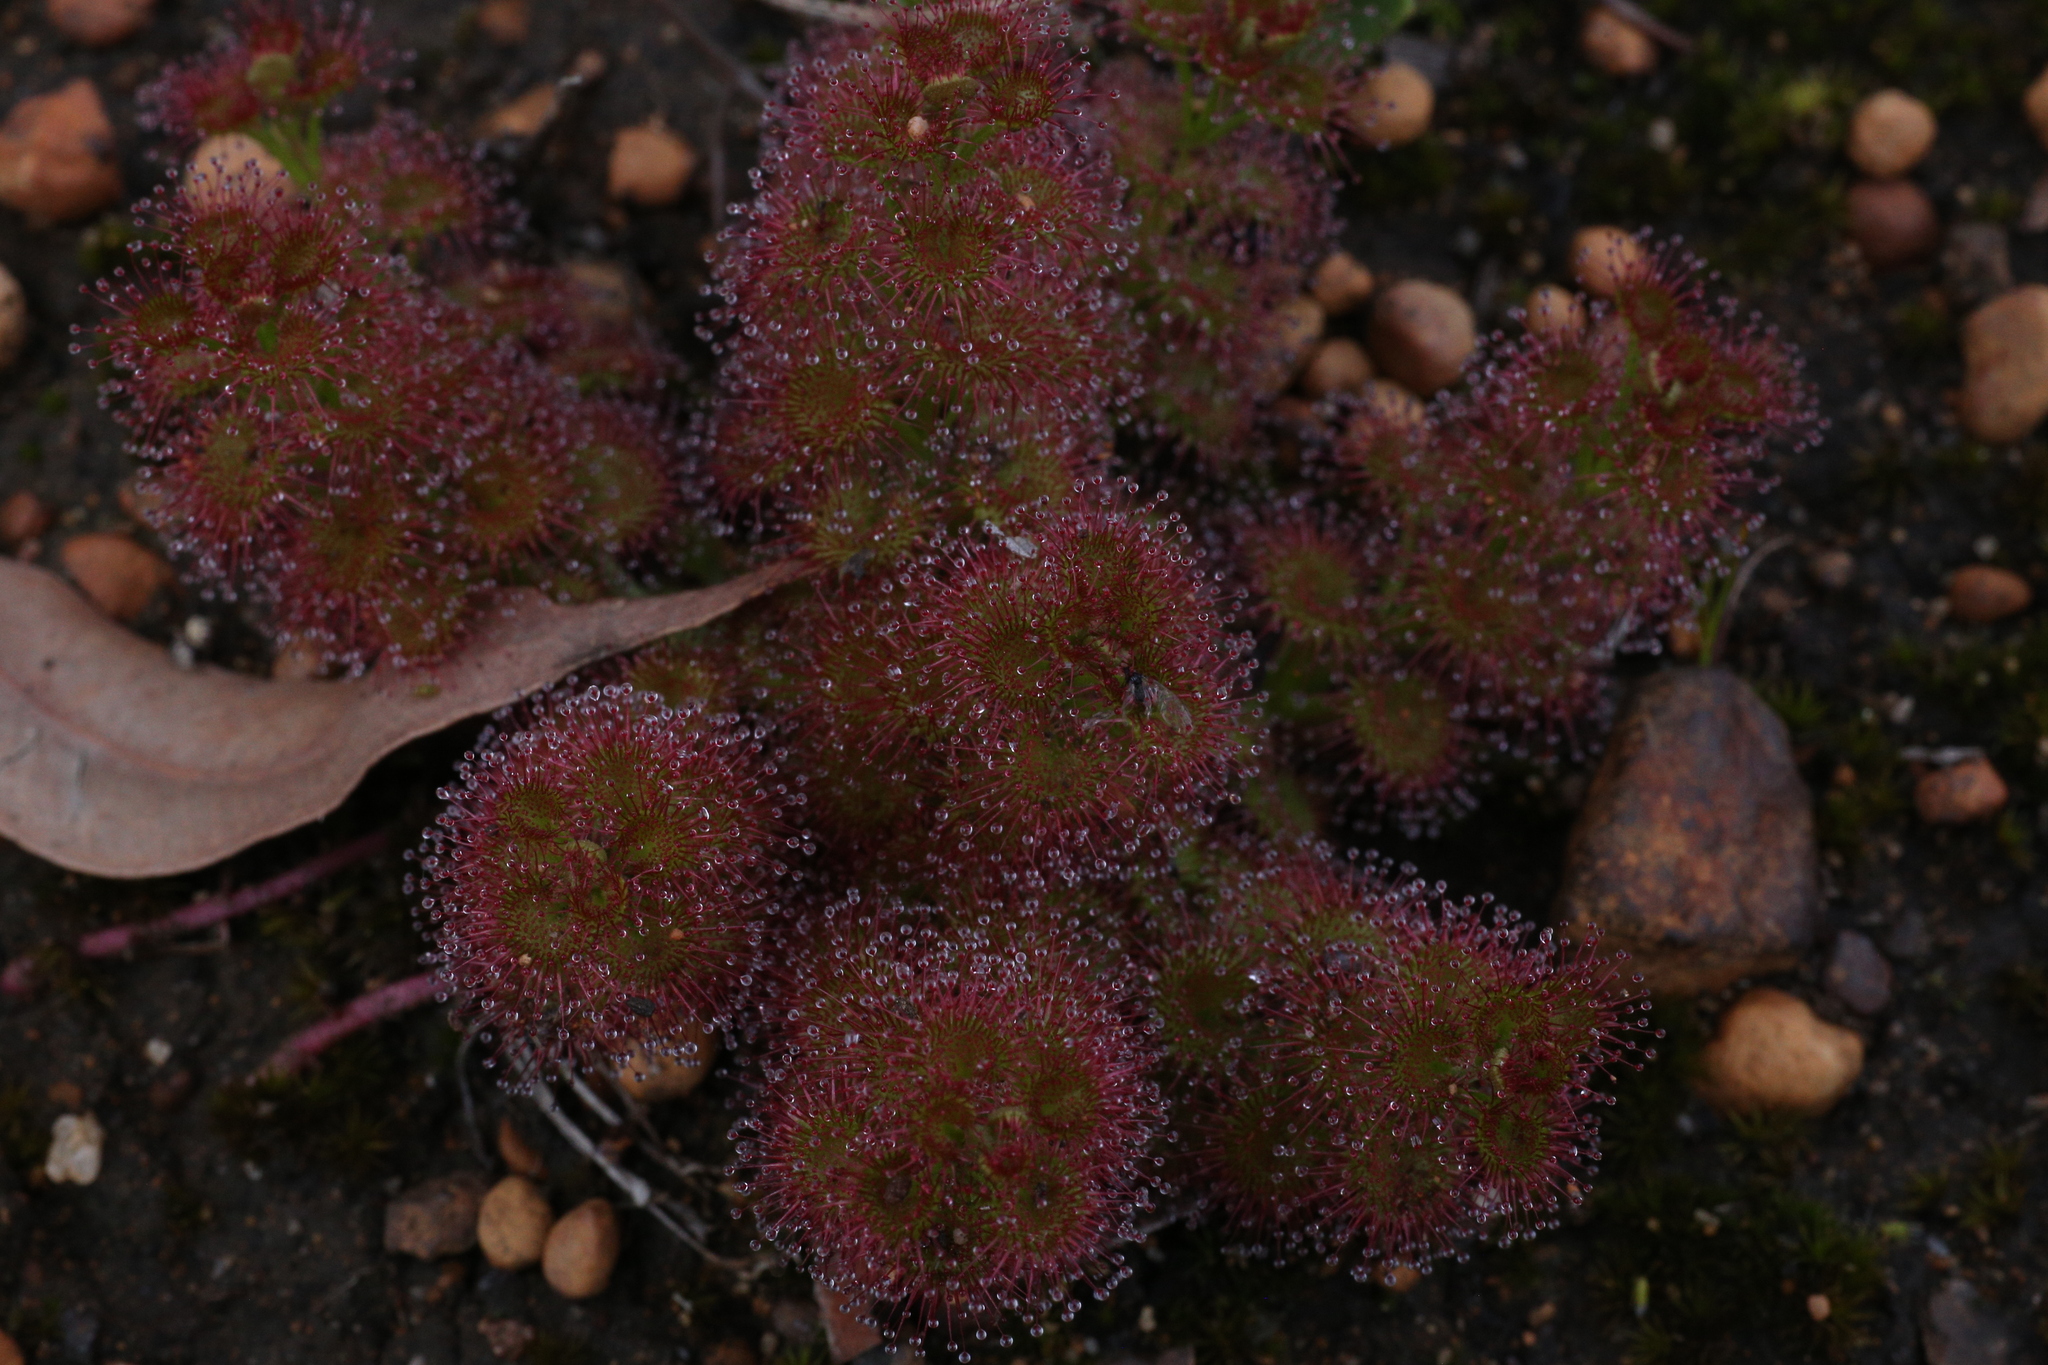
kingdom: Plantae
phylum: Tracheophyta
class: Magnoliopsida
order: Caryophyllales
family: Droseraceae
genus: Drosera
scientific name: Drosera stolonifera
